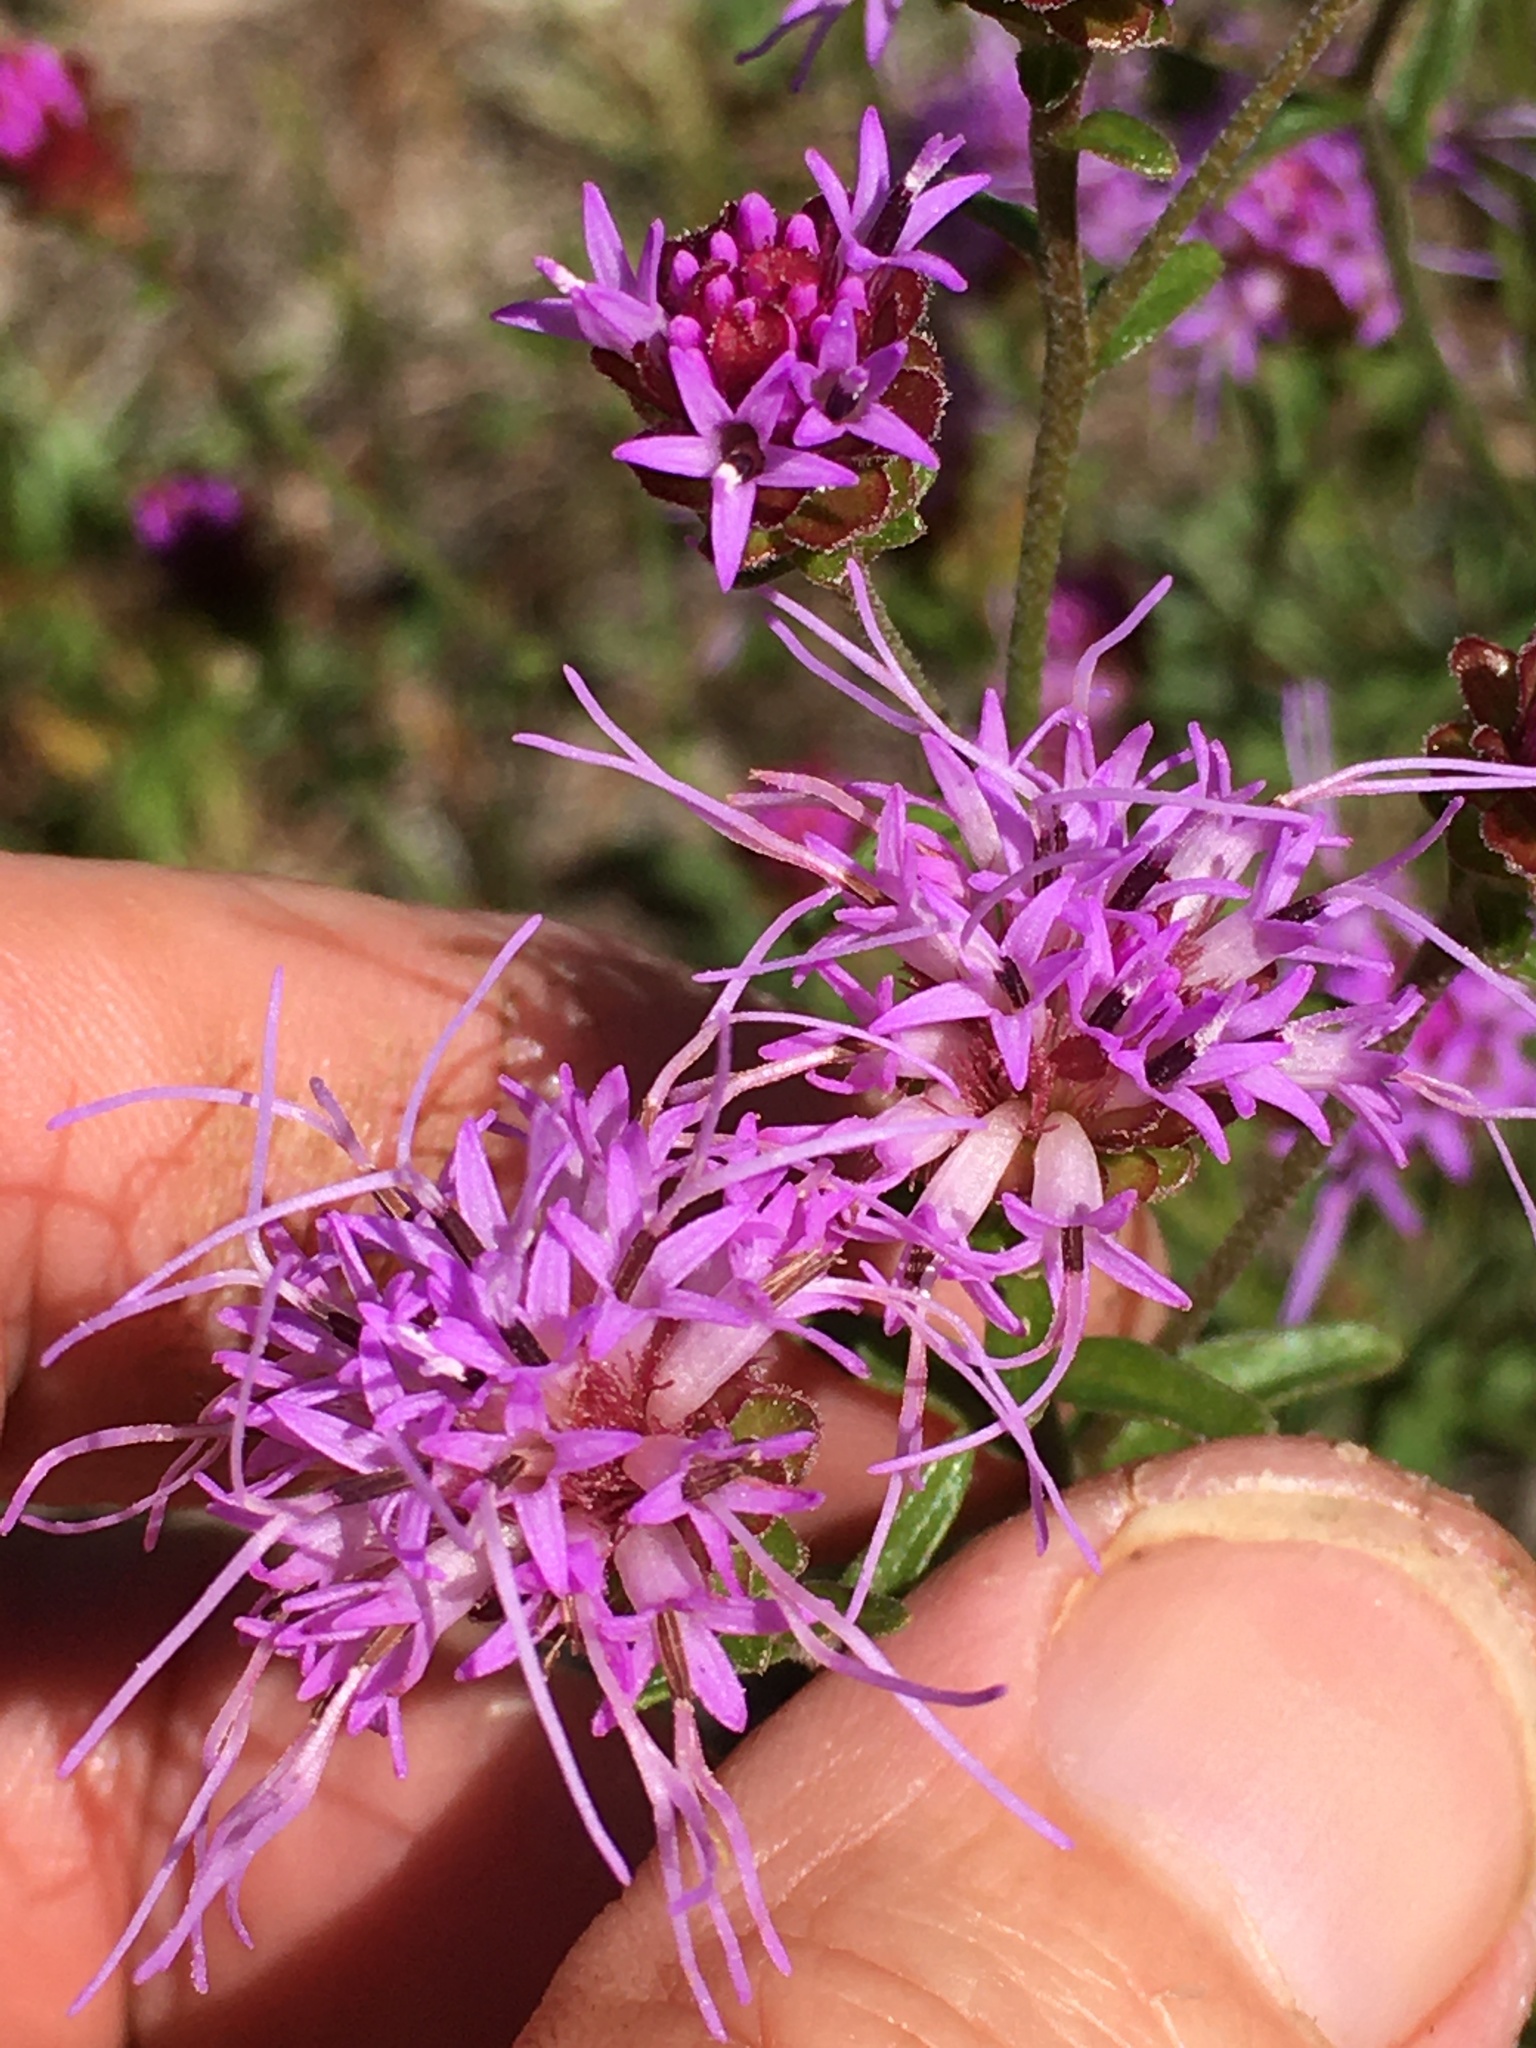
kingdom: Plantae
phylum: Tracheophyta
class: Magnoliopsida
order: Asterales
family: Asteraceae
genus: Carphephorus
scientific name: Carphephorus bellidifolius
